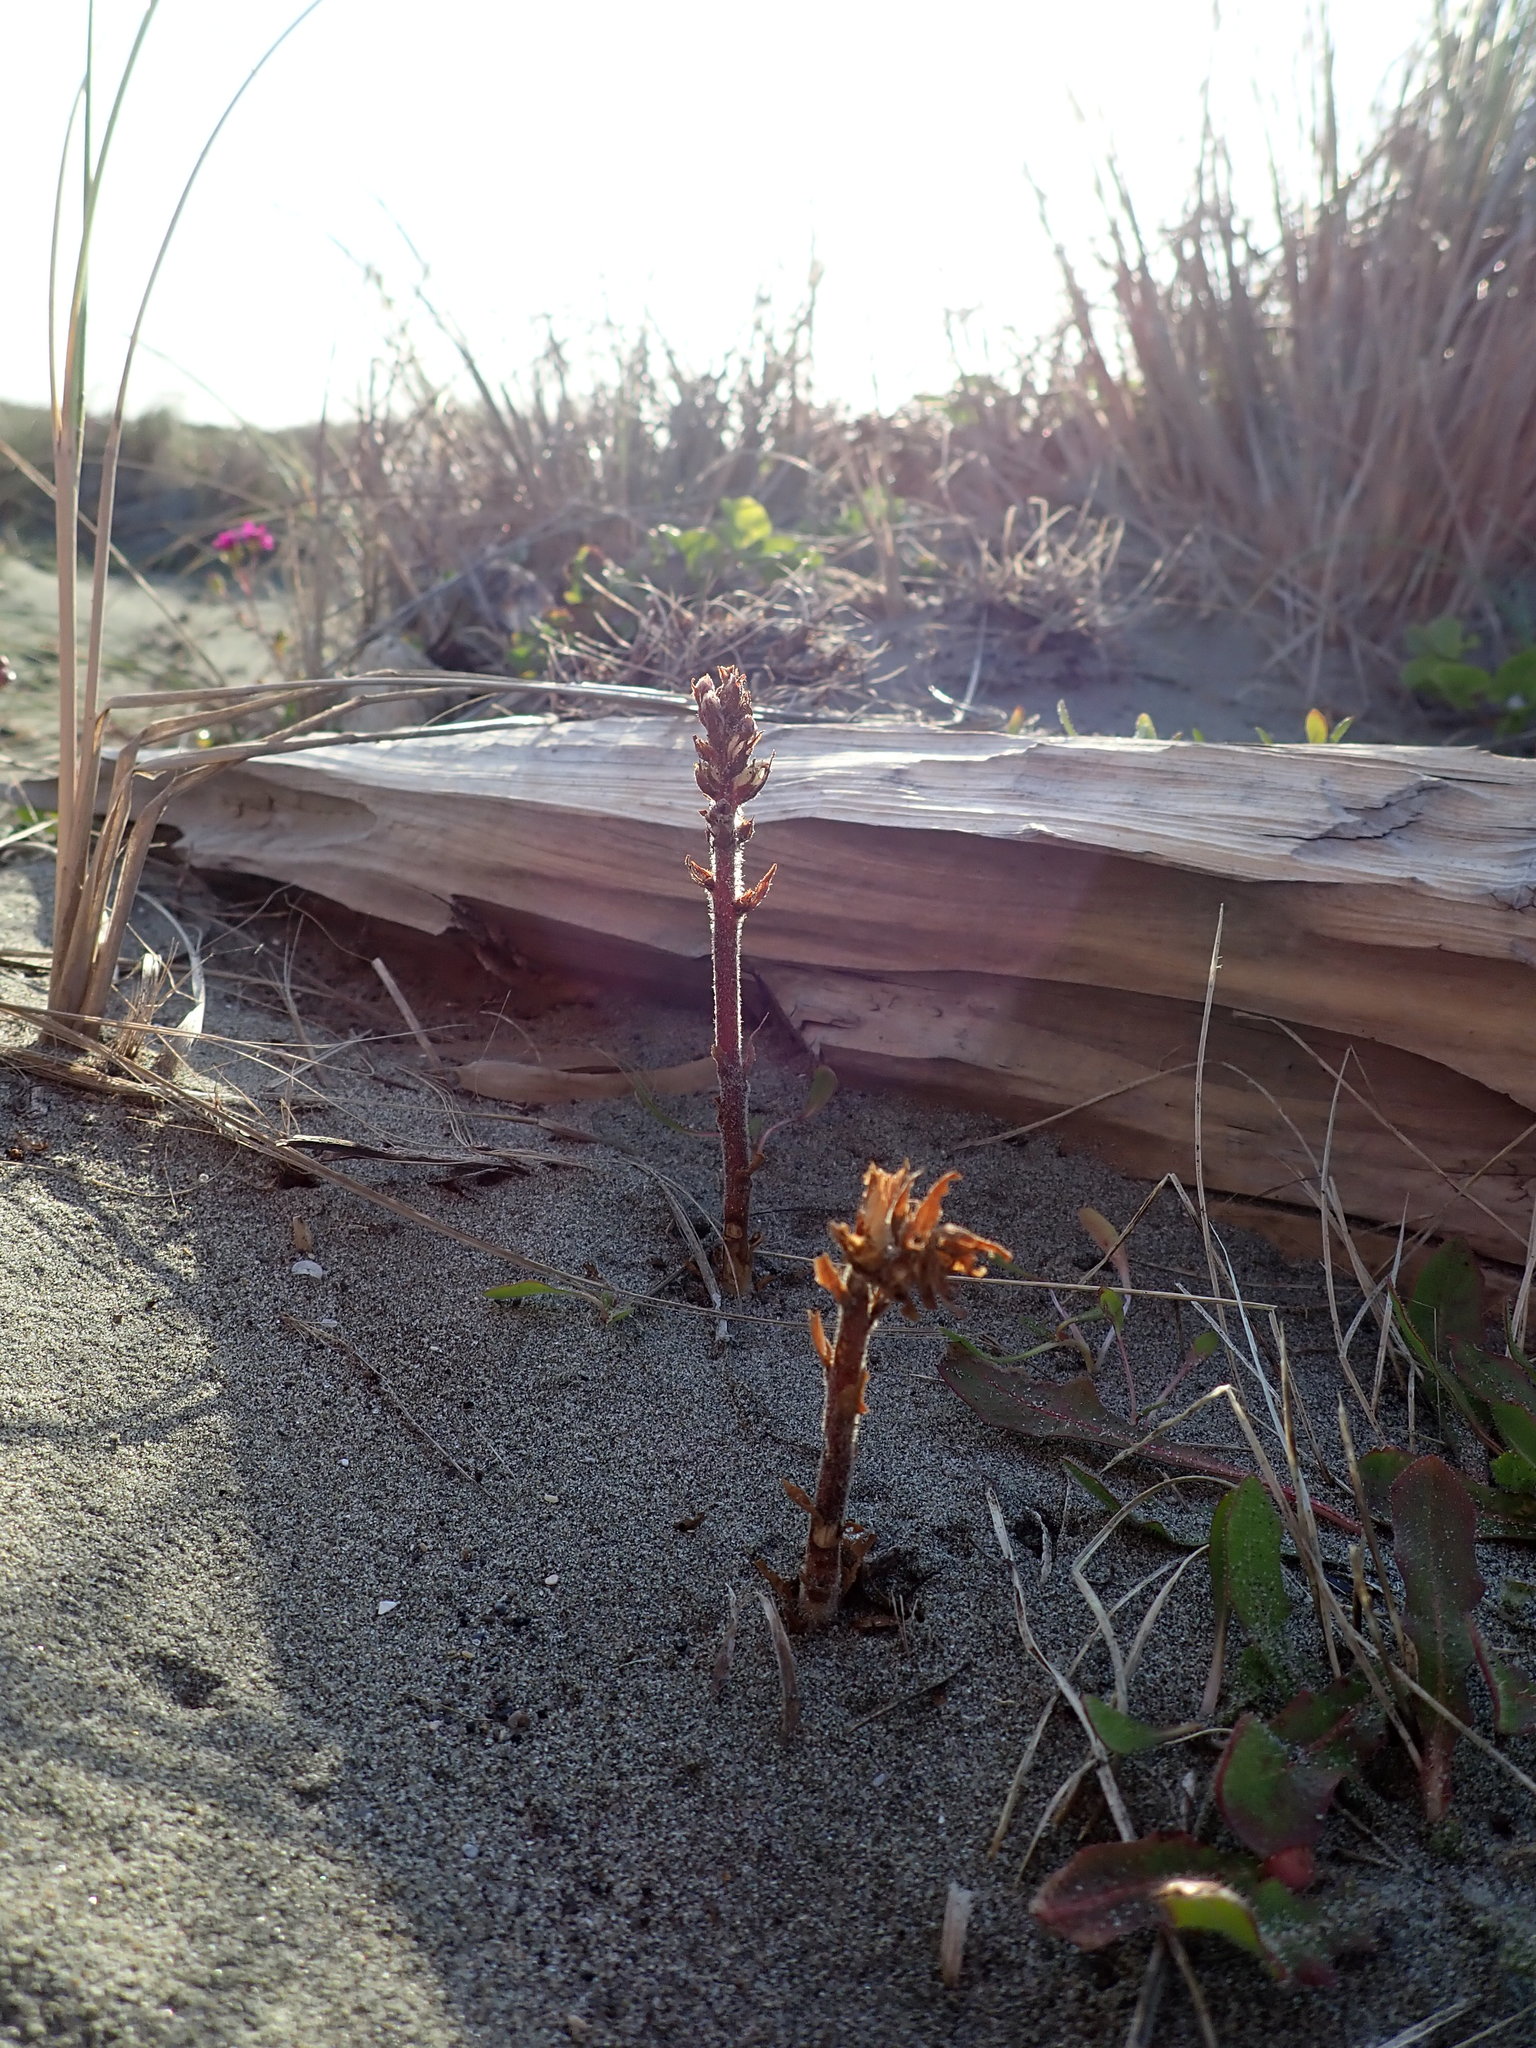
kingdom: Plantae
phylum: Tracheophyta
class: Magnoliopsida
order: Lamiales
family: Orobanchaceae
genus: Orobanche
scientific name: Orobanche minor
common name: Common broomrape
